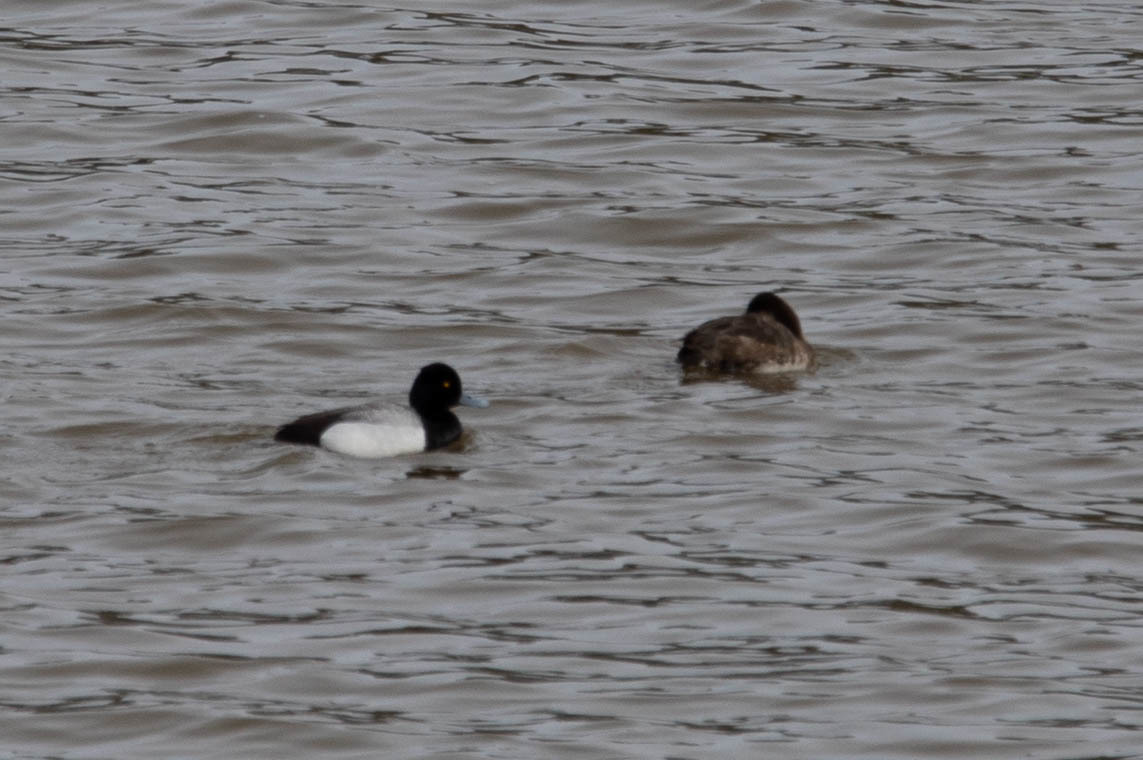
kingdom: Animalia
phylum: Chordata
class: Aves
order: Anseriformes
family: Anatidae
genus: Aythya
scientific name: Aythya affinis
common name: Lesser scaup
